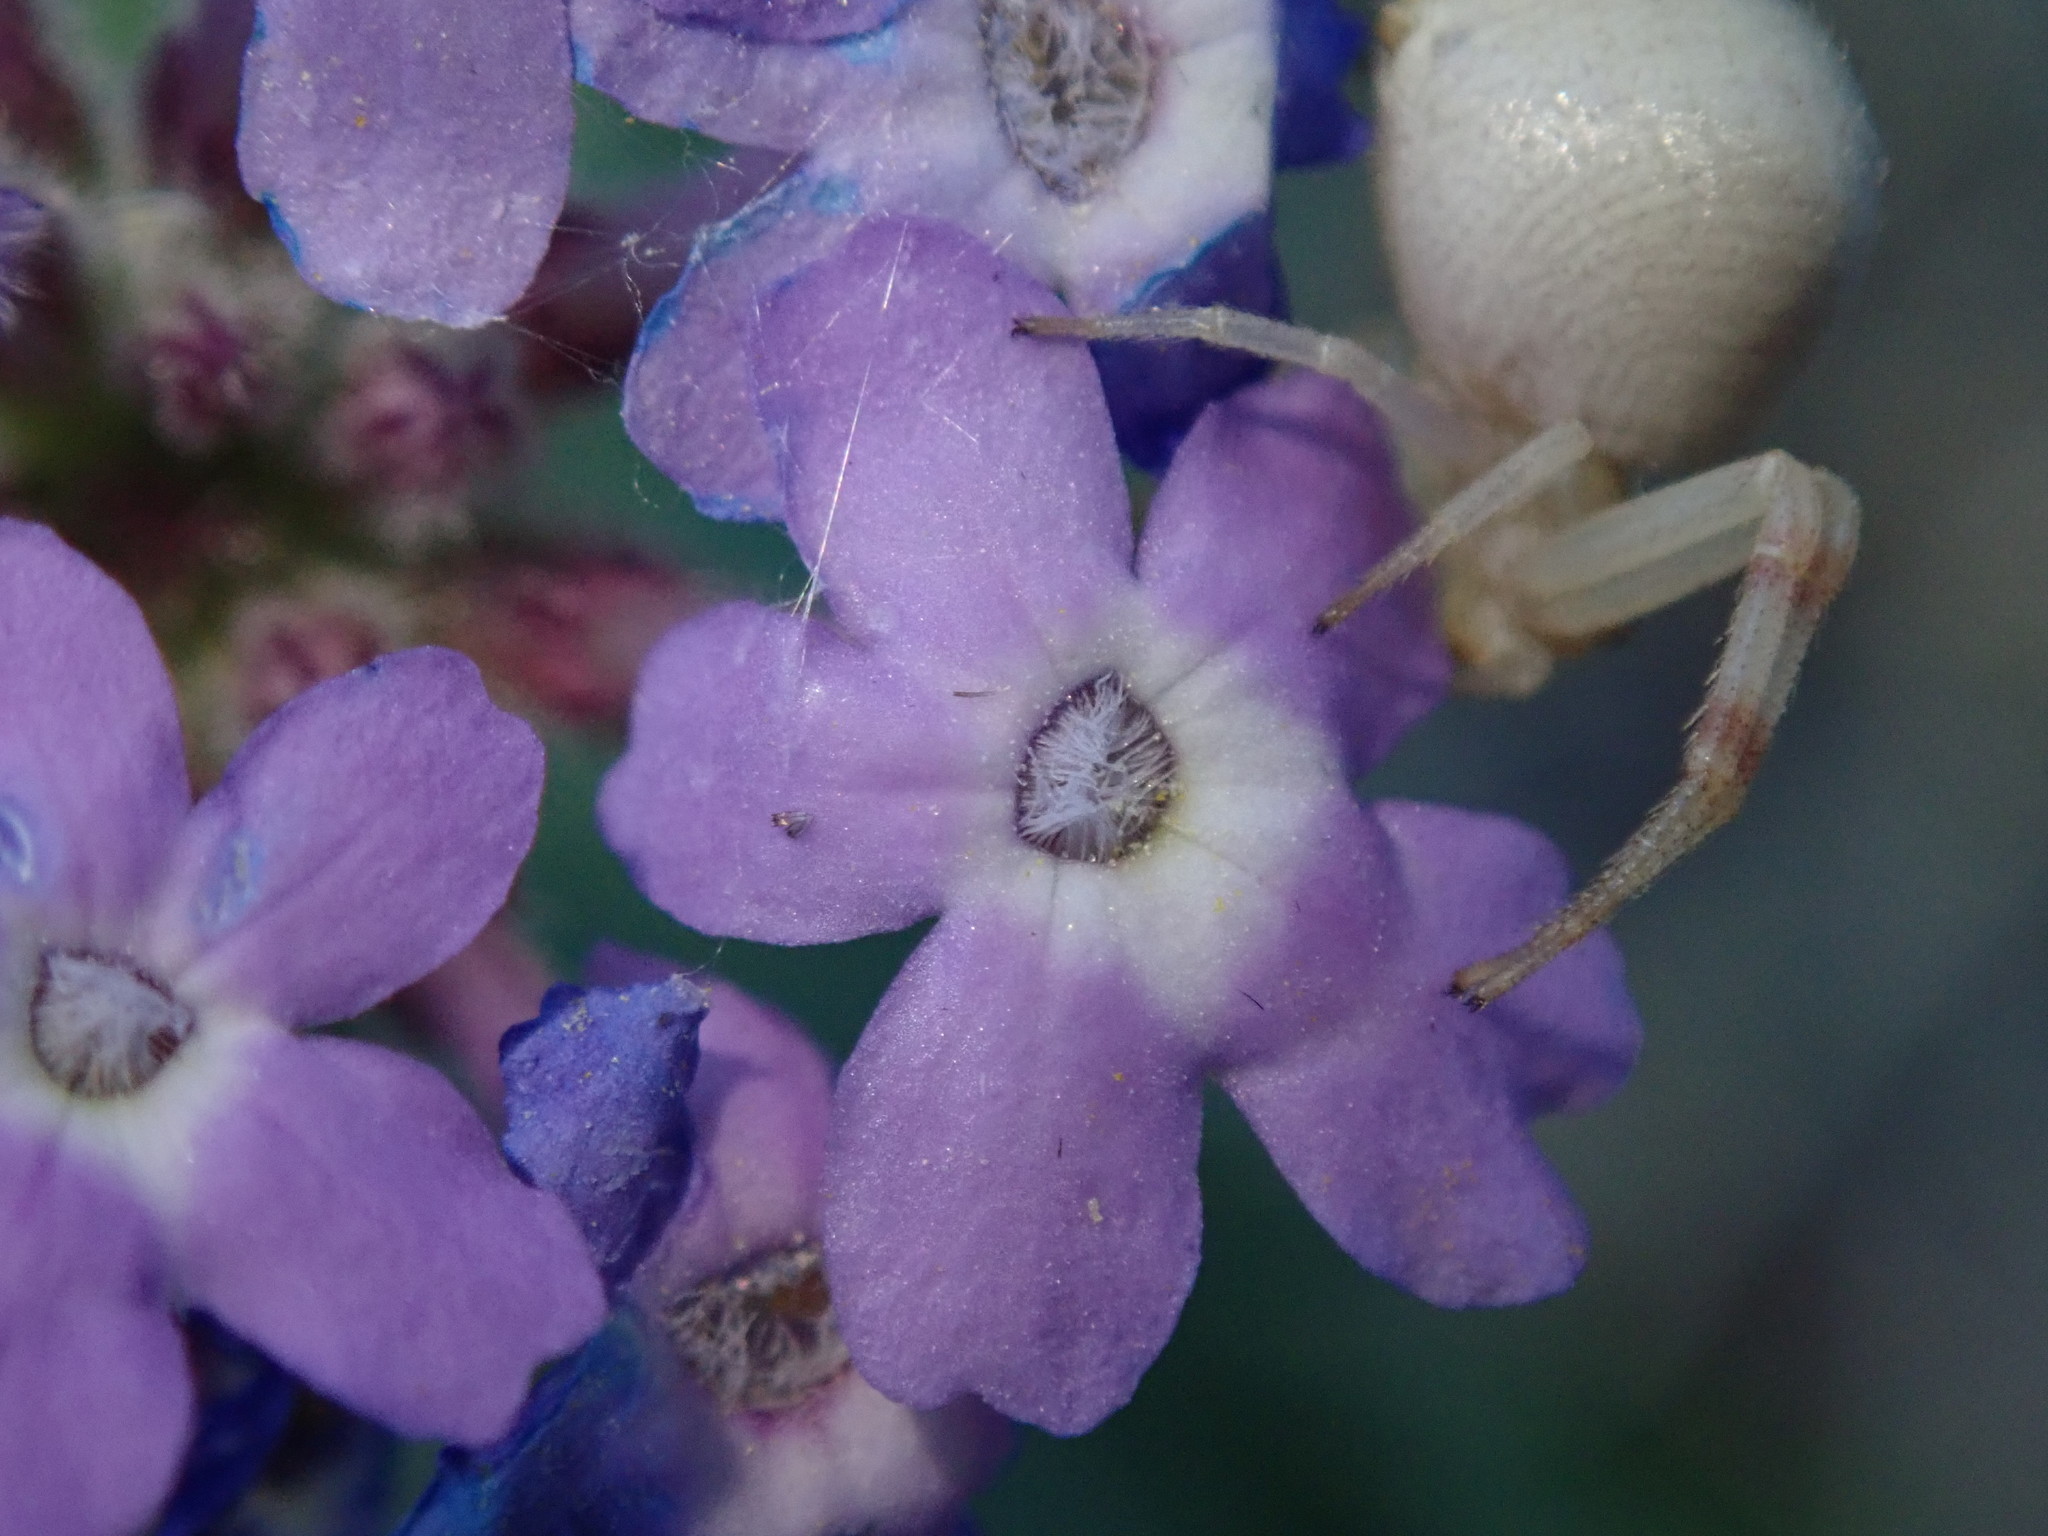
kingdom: Plantae
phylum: Tracheophyta
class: Magnoliopsida
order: Lamiales
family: Verbenaceae
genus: Verbena
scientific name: Verbena gooddingii
